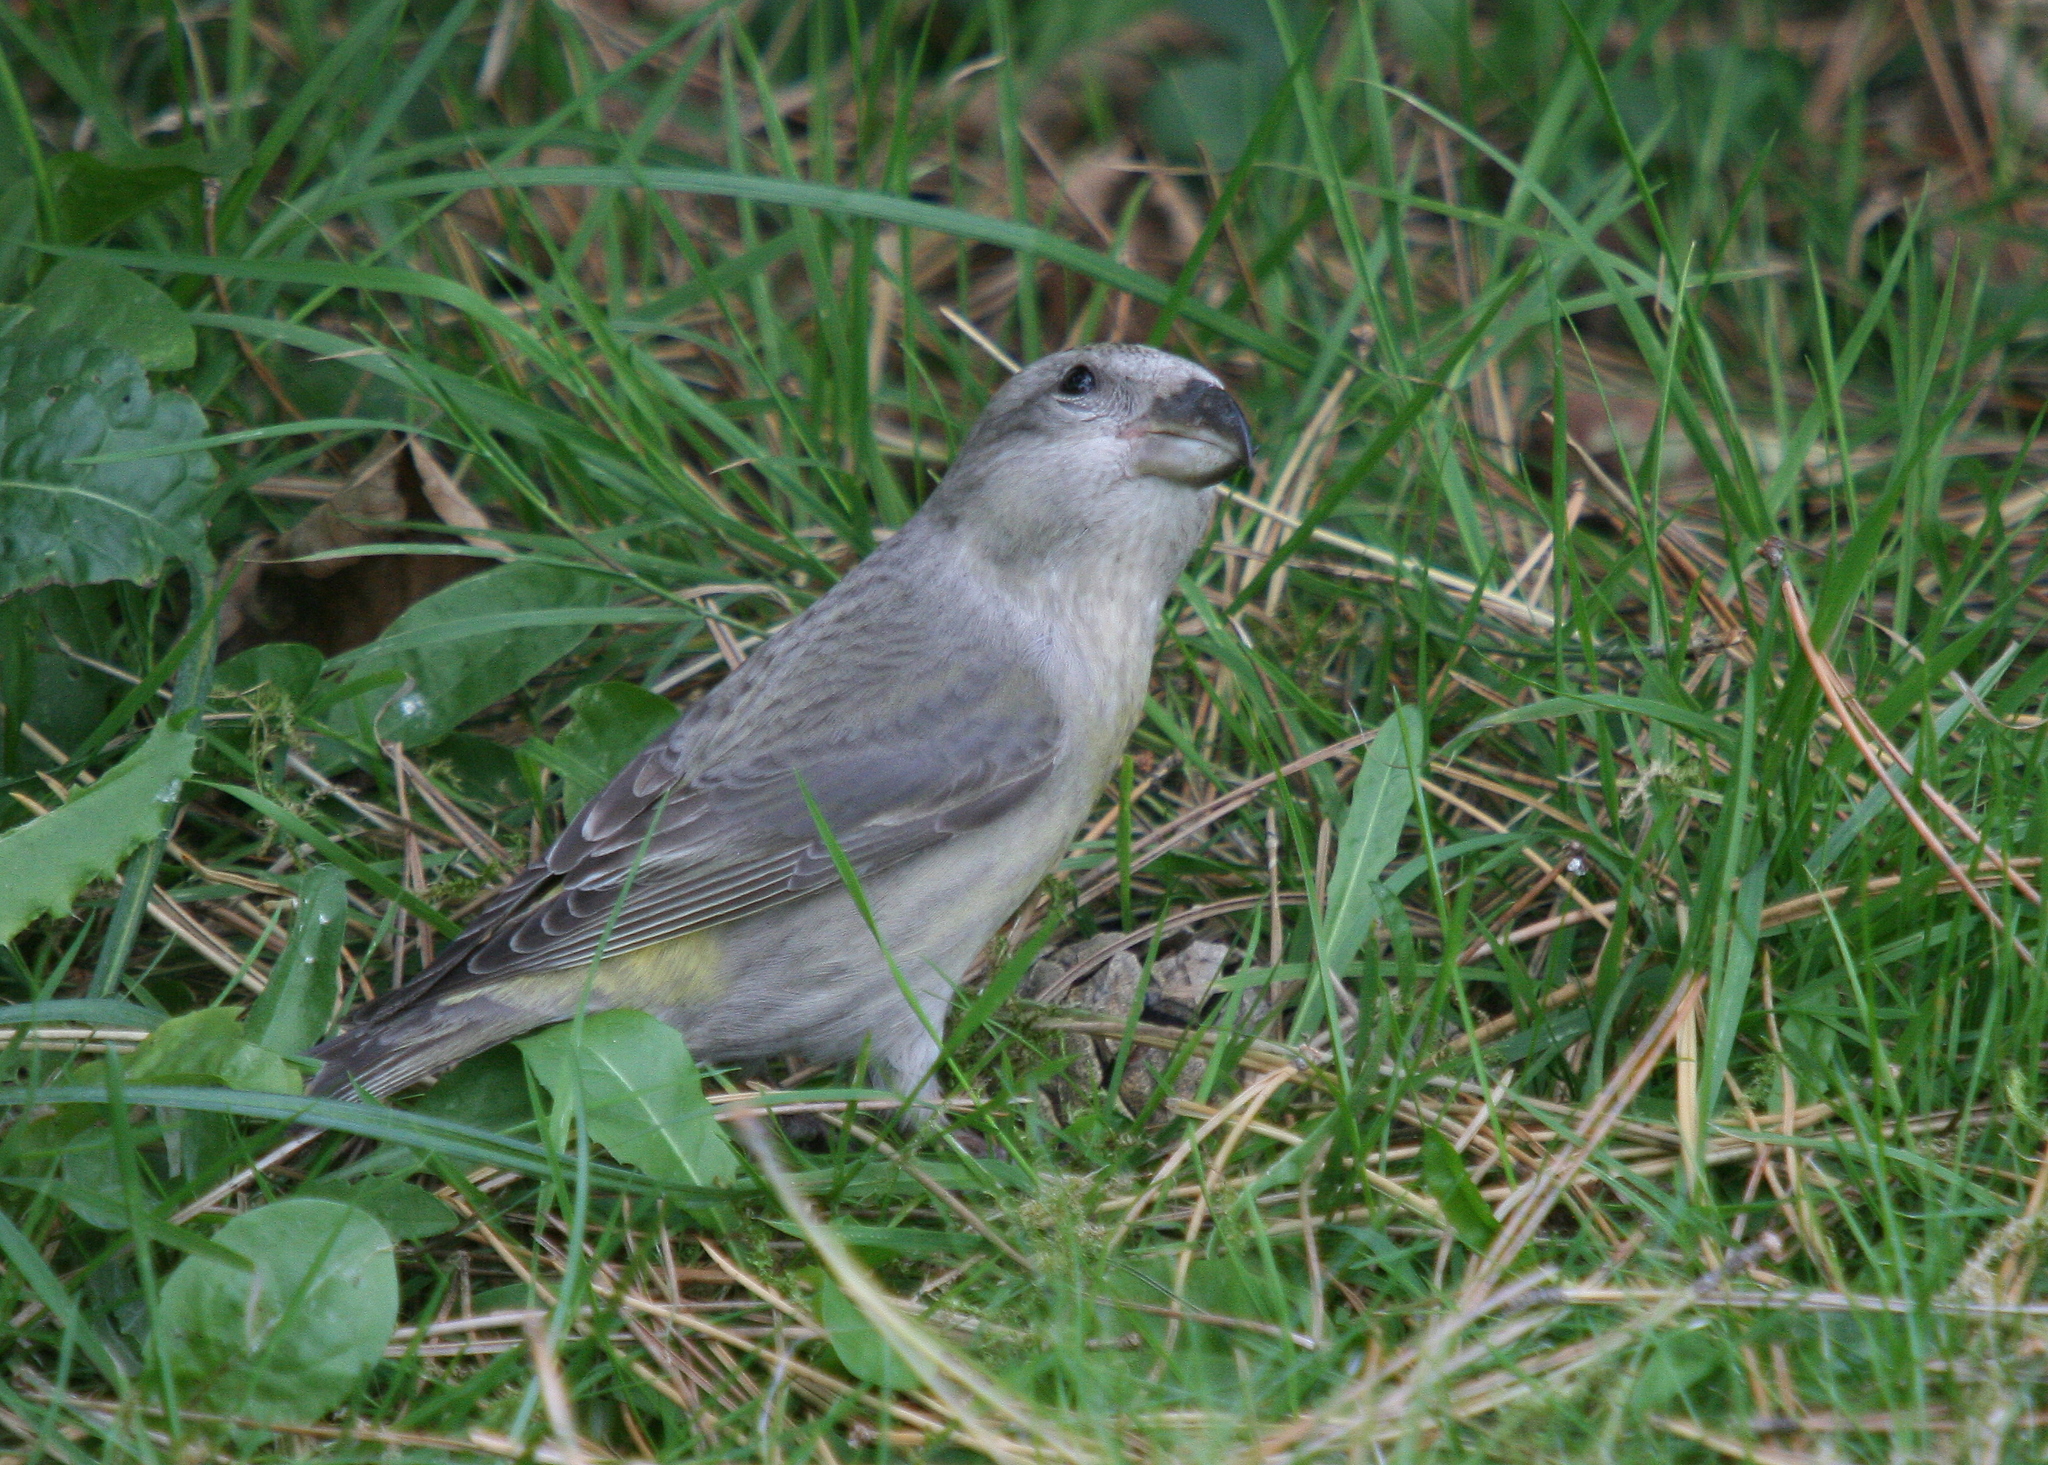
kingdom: Animalia
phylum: Chordata
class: Aves
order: Passeriformes
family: Fringillidae
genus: Loxia
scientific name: Loxia curvirostra
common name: Red crossbill
